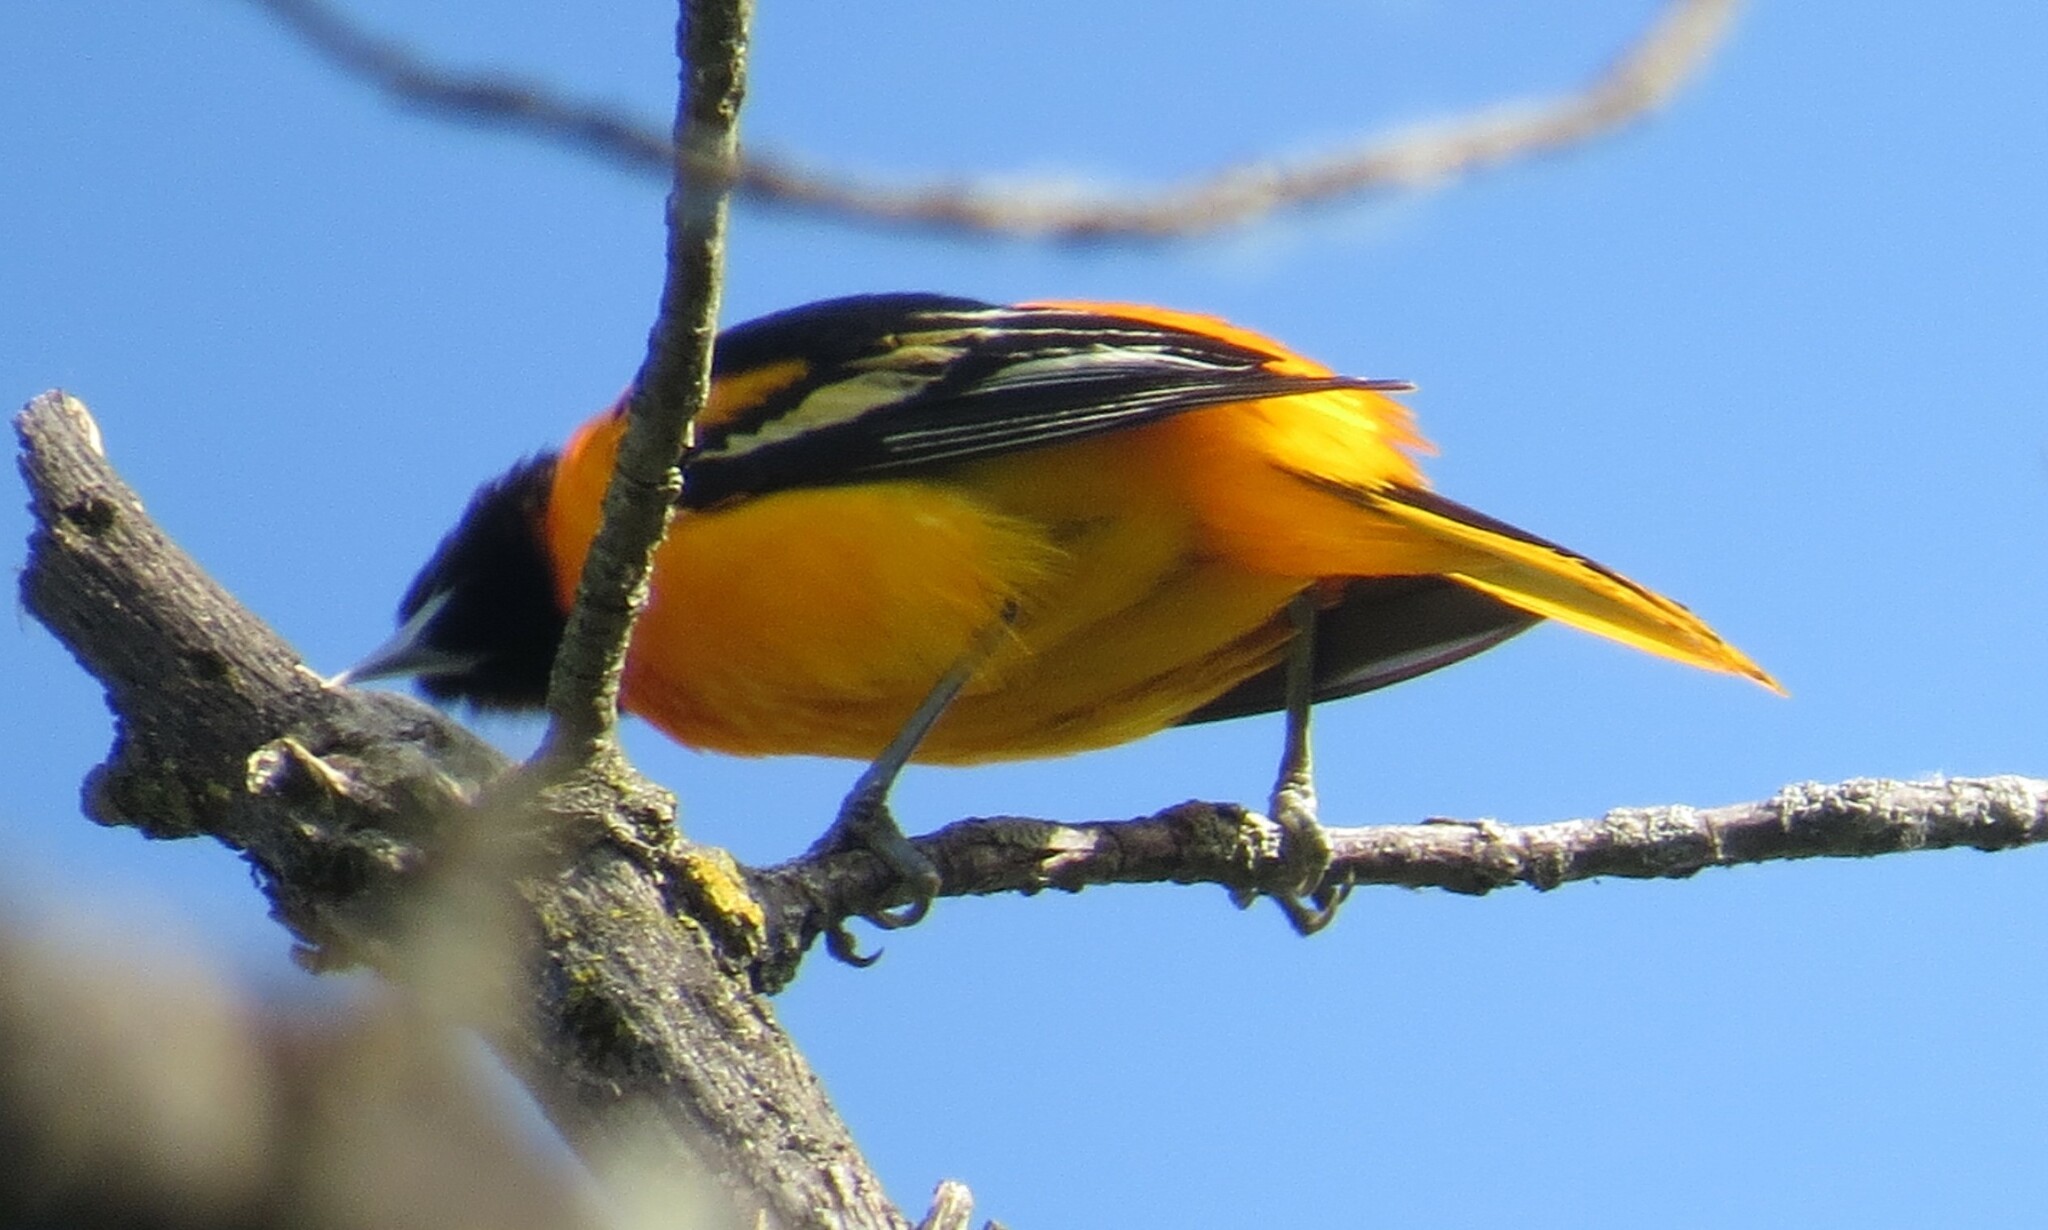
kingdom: Animalia
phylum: Chordata
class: Aves
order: Passeriformes
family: Icteridae
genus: Icterus
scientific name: Icterus galbula
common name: Baltimore oriole
